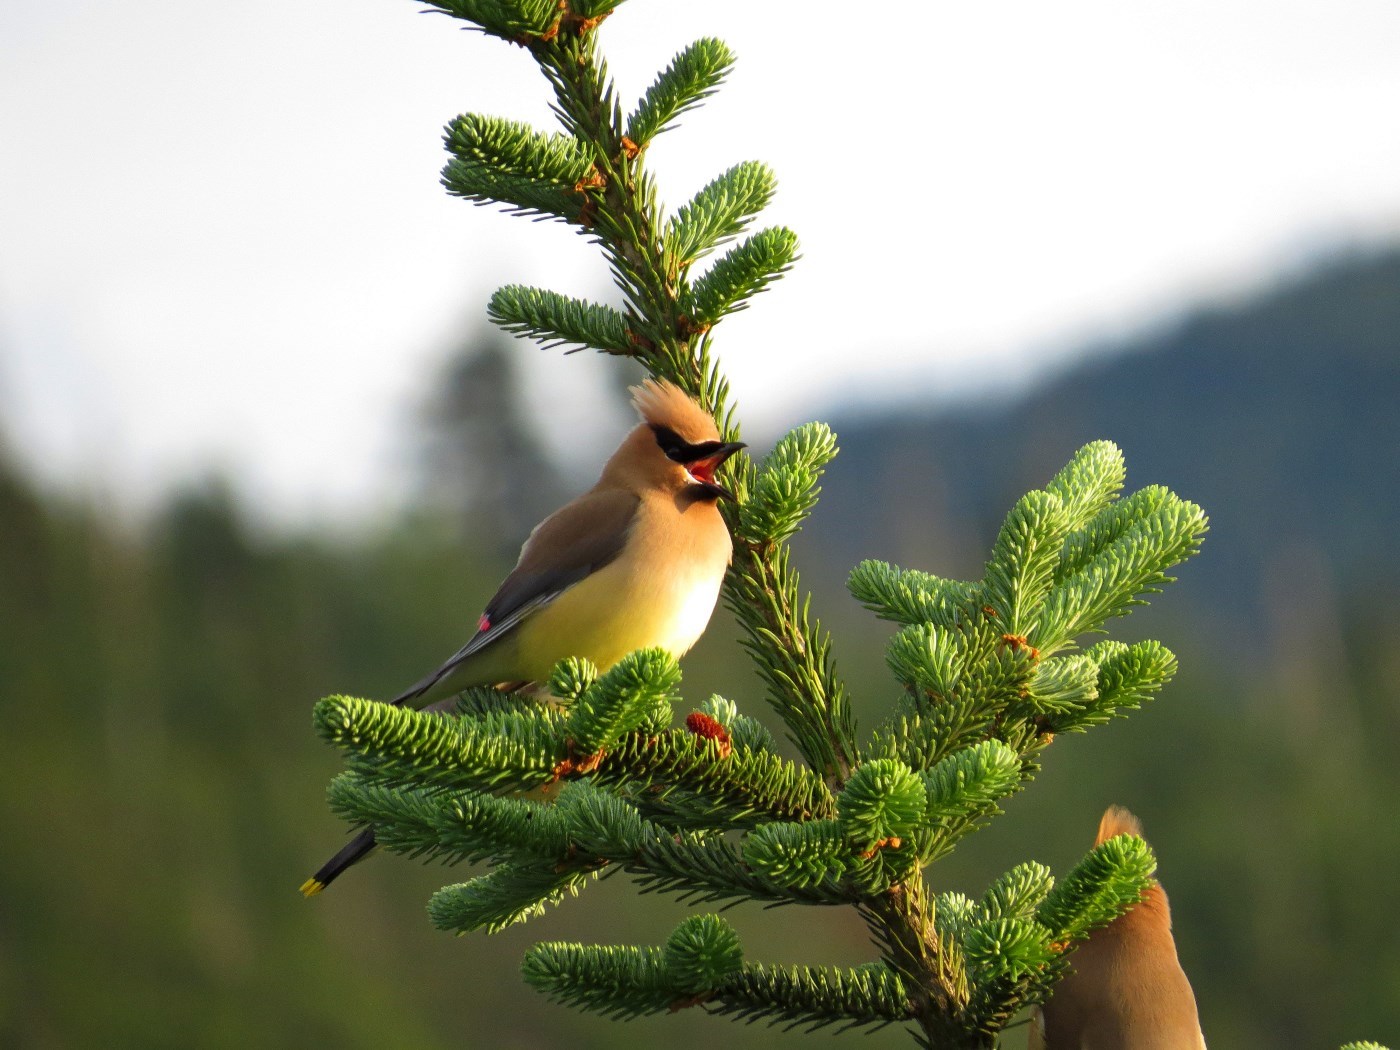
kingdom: Animalia
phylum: Chordata
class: Aves
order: Passeriformes
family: Bombycillidae
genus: Bombycilla
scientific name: Bombycilla cedrorum
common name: Cedar waxwing
